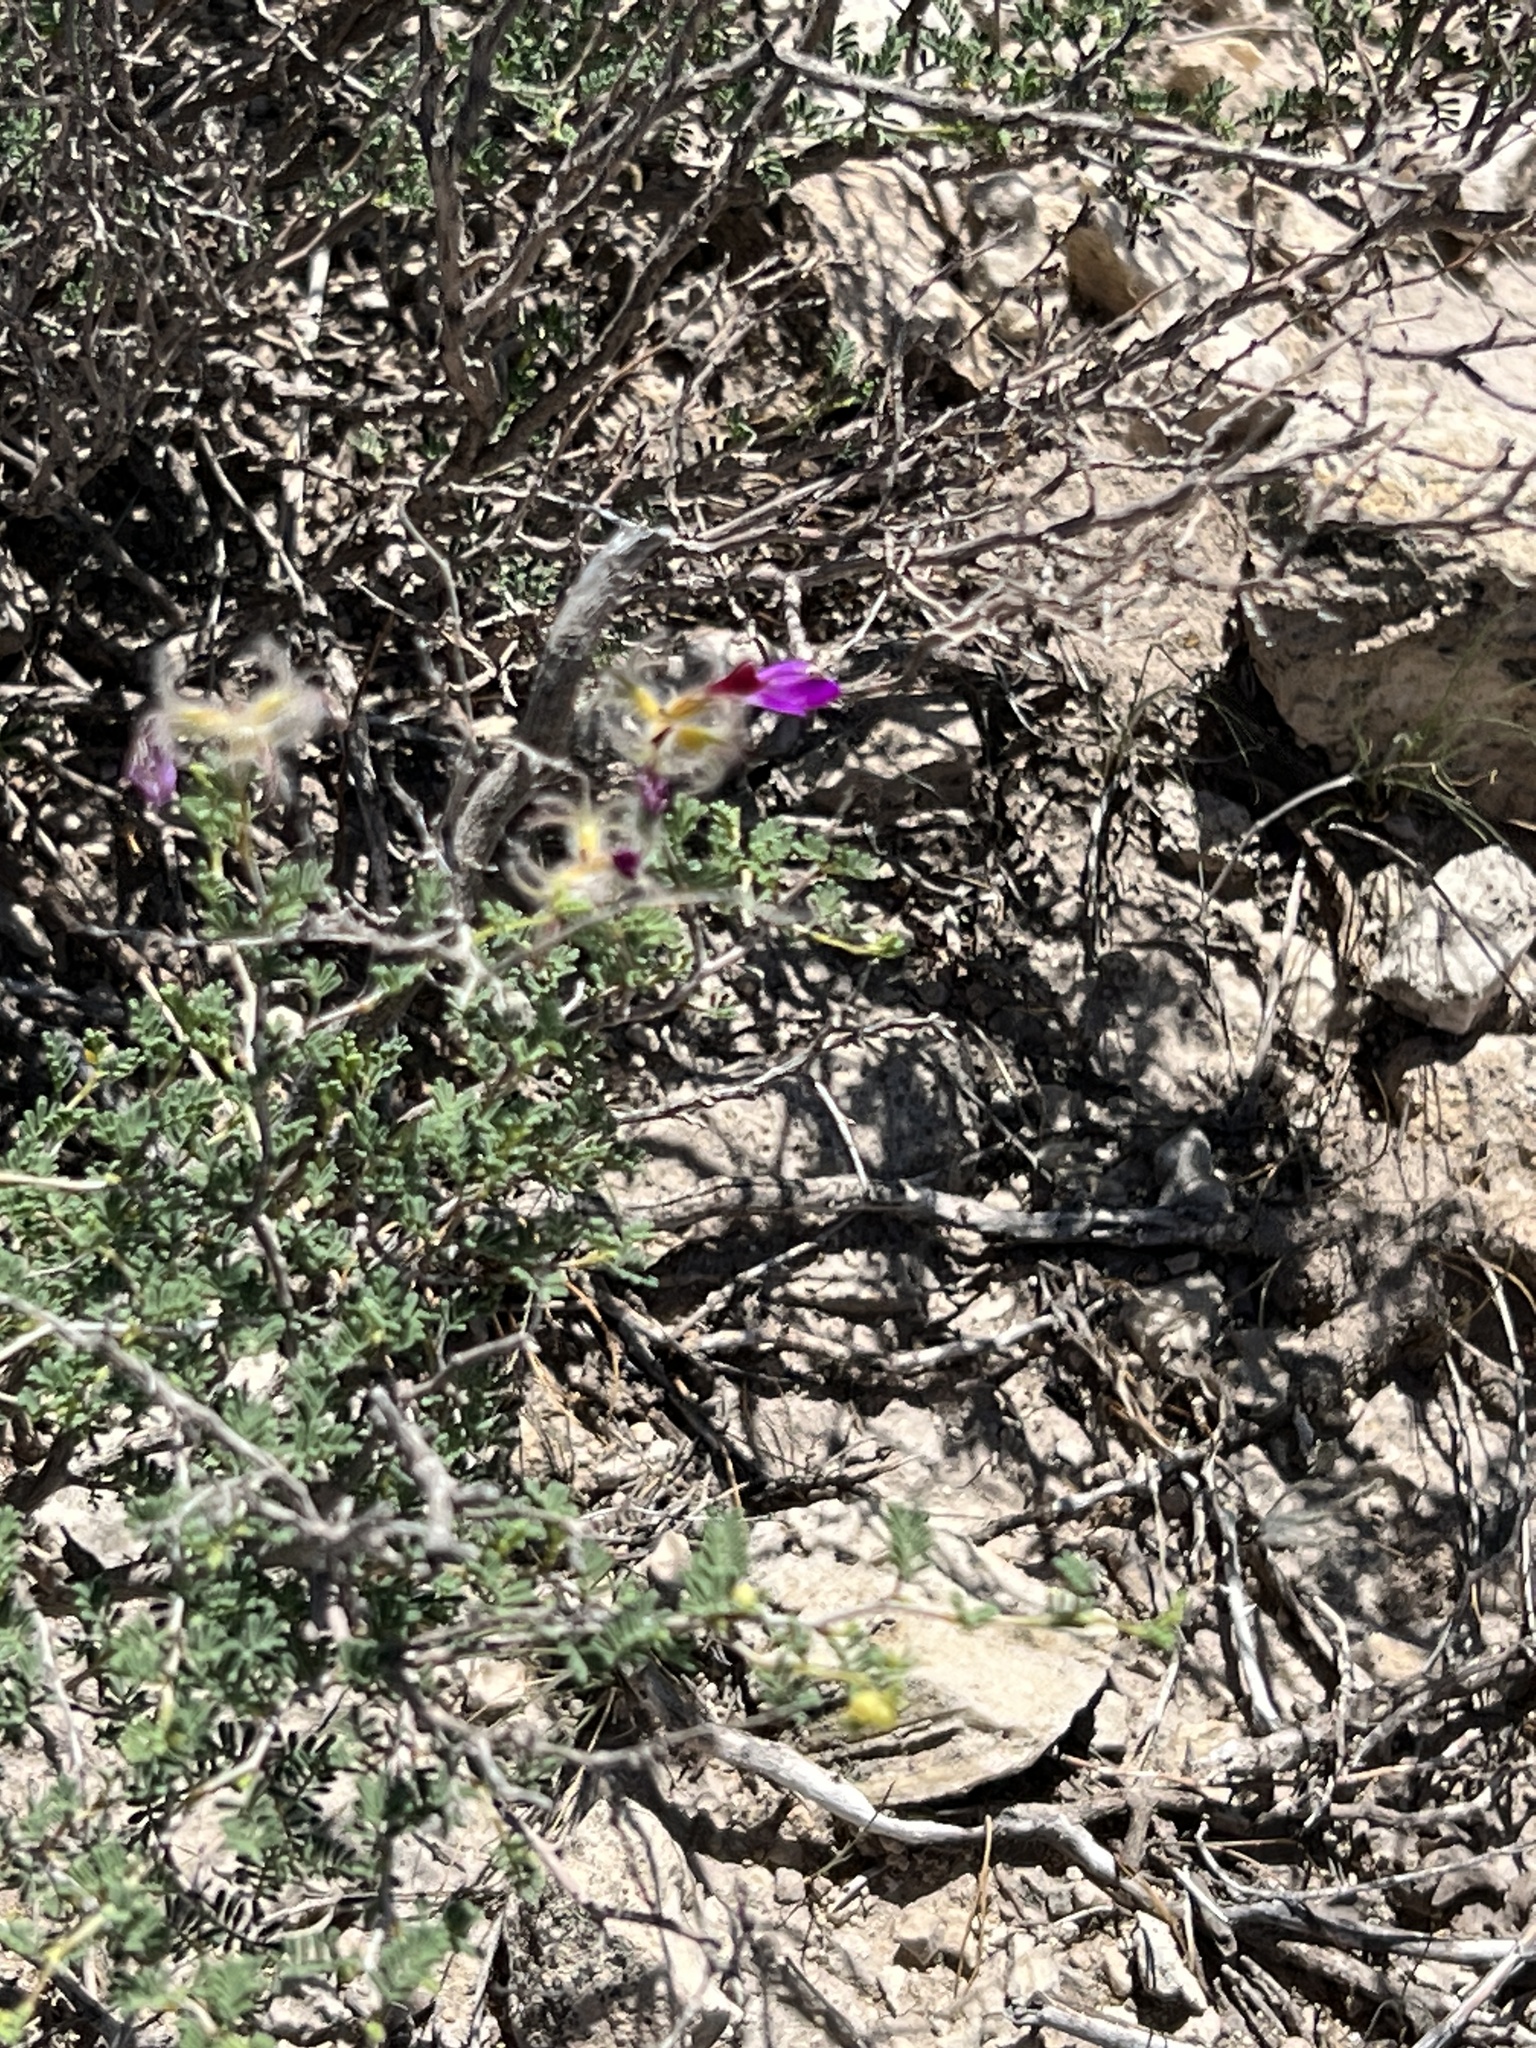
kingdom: Plantae
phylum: Tracheophyta
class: Magnoliopsida
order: Fabales
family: Fabaceae
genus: Dalea
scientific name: Dalea formosa
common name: Feather-plume dalea
